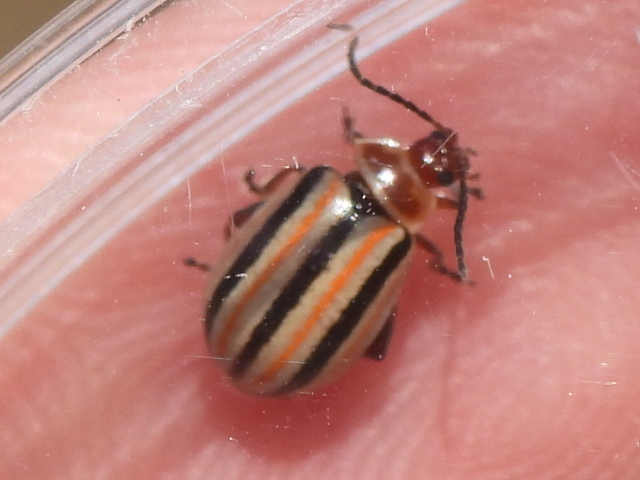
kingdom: Animalia
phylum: Arthropoda
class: Insecta
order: Coleoptera
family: Chrysomelidae
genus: Disonycha
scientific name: Disonycha leptolineata
